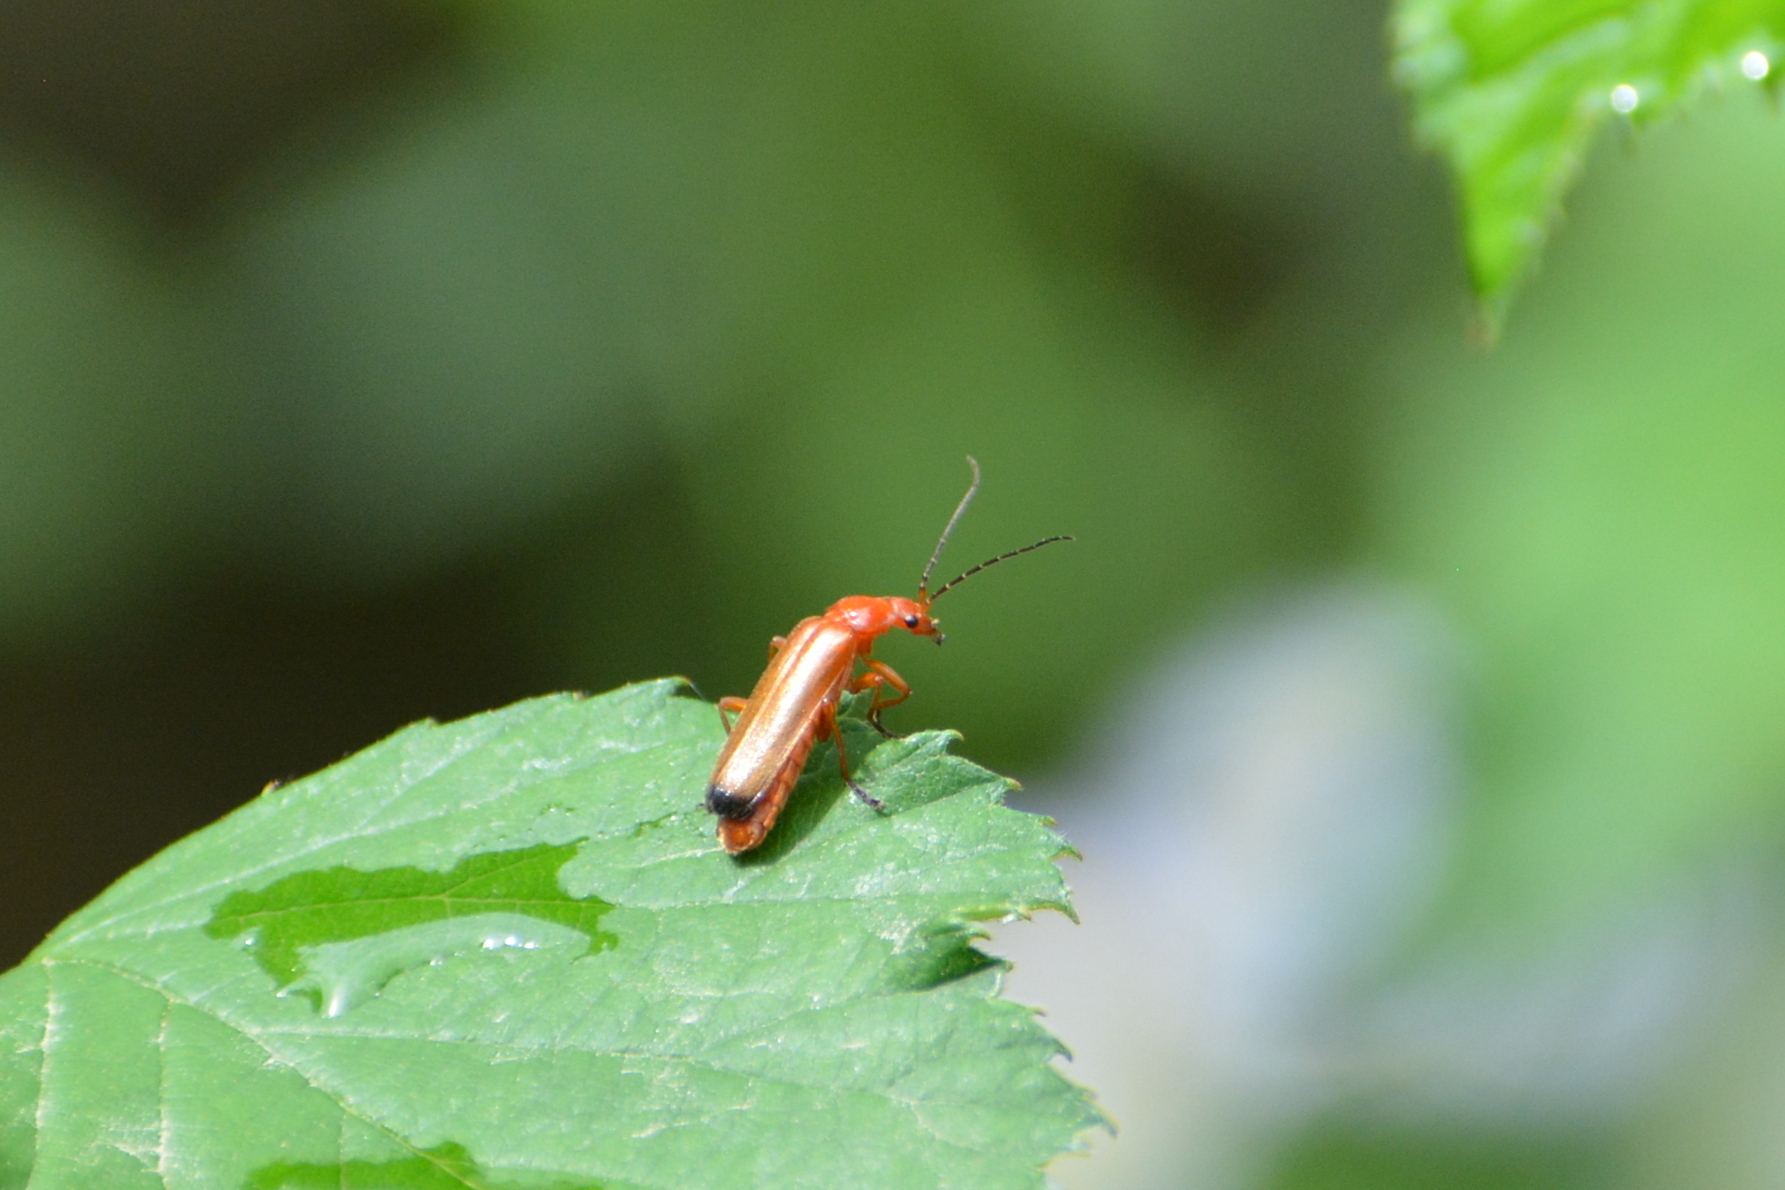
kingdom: Animalia
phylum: Arthropoda
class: Insecta
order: Coleoptera
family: Cantharidae
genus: Rhagonycha
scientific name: Rhagonycha fulva
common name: Common red soldier beetle
